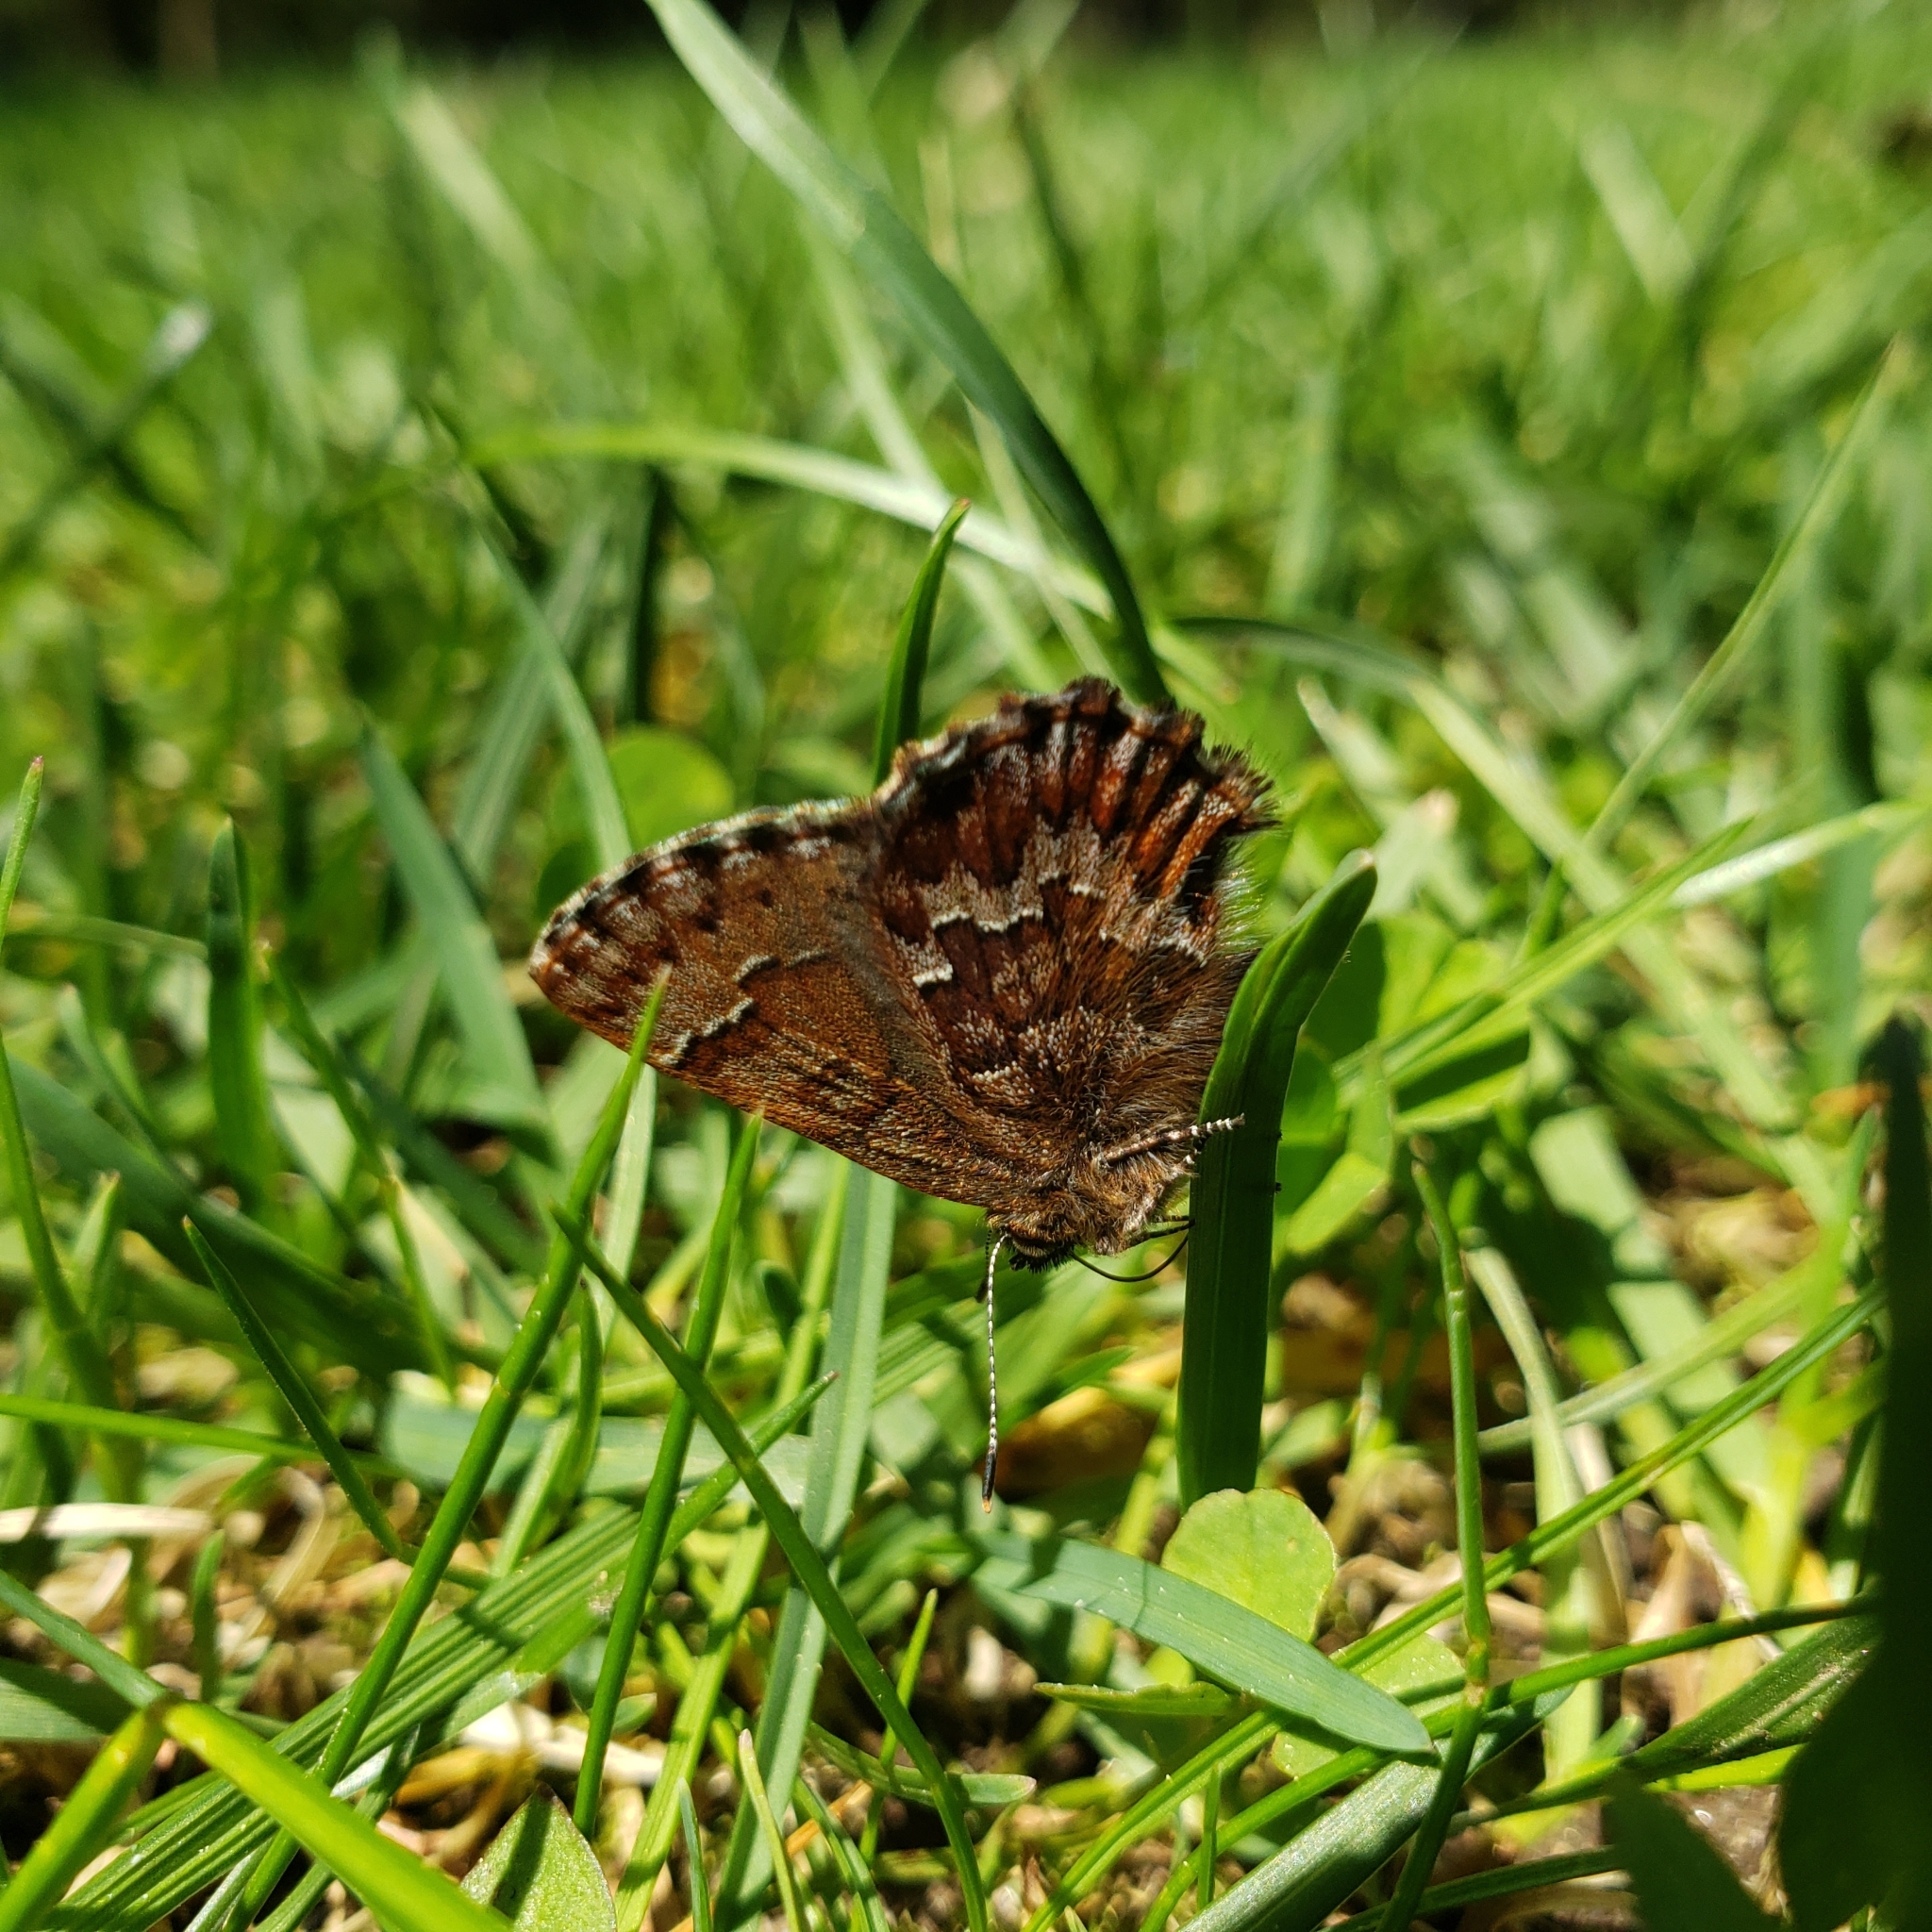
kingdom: Animalia
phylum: Arthropoda
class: Insecta
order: Lepidoptera
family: Lycaenidae
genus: Incisalia
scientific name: Incisalia niphon
